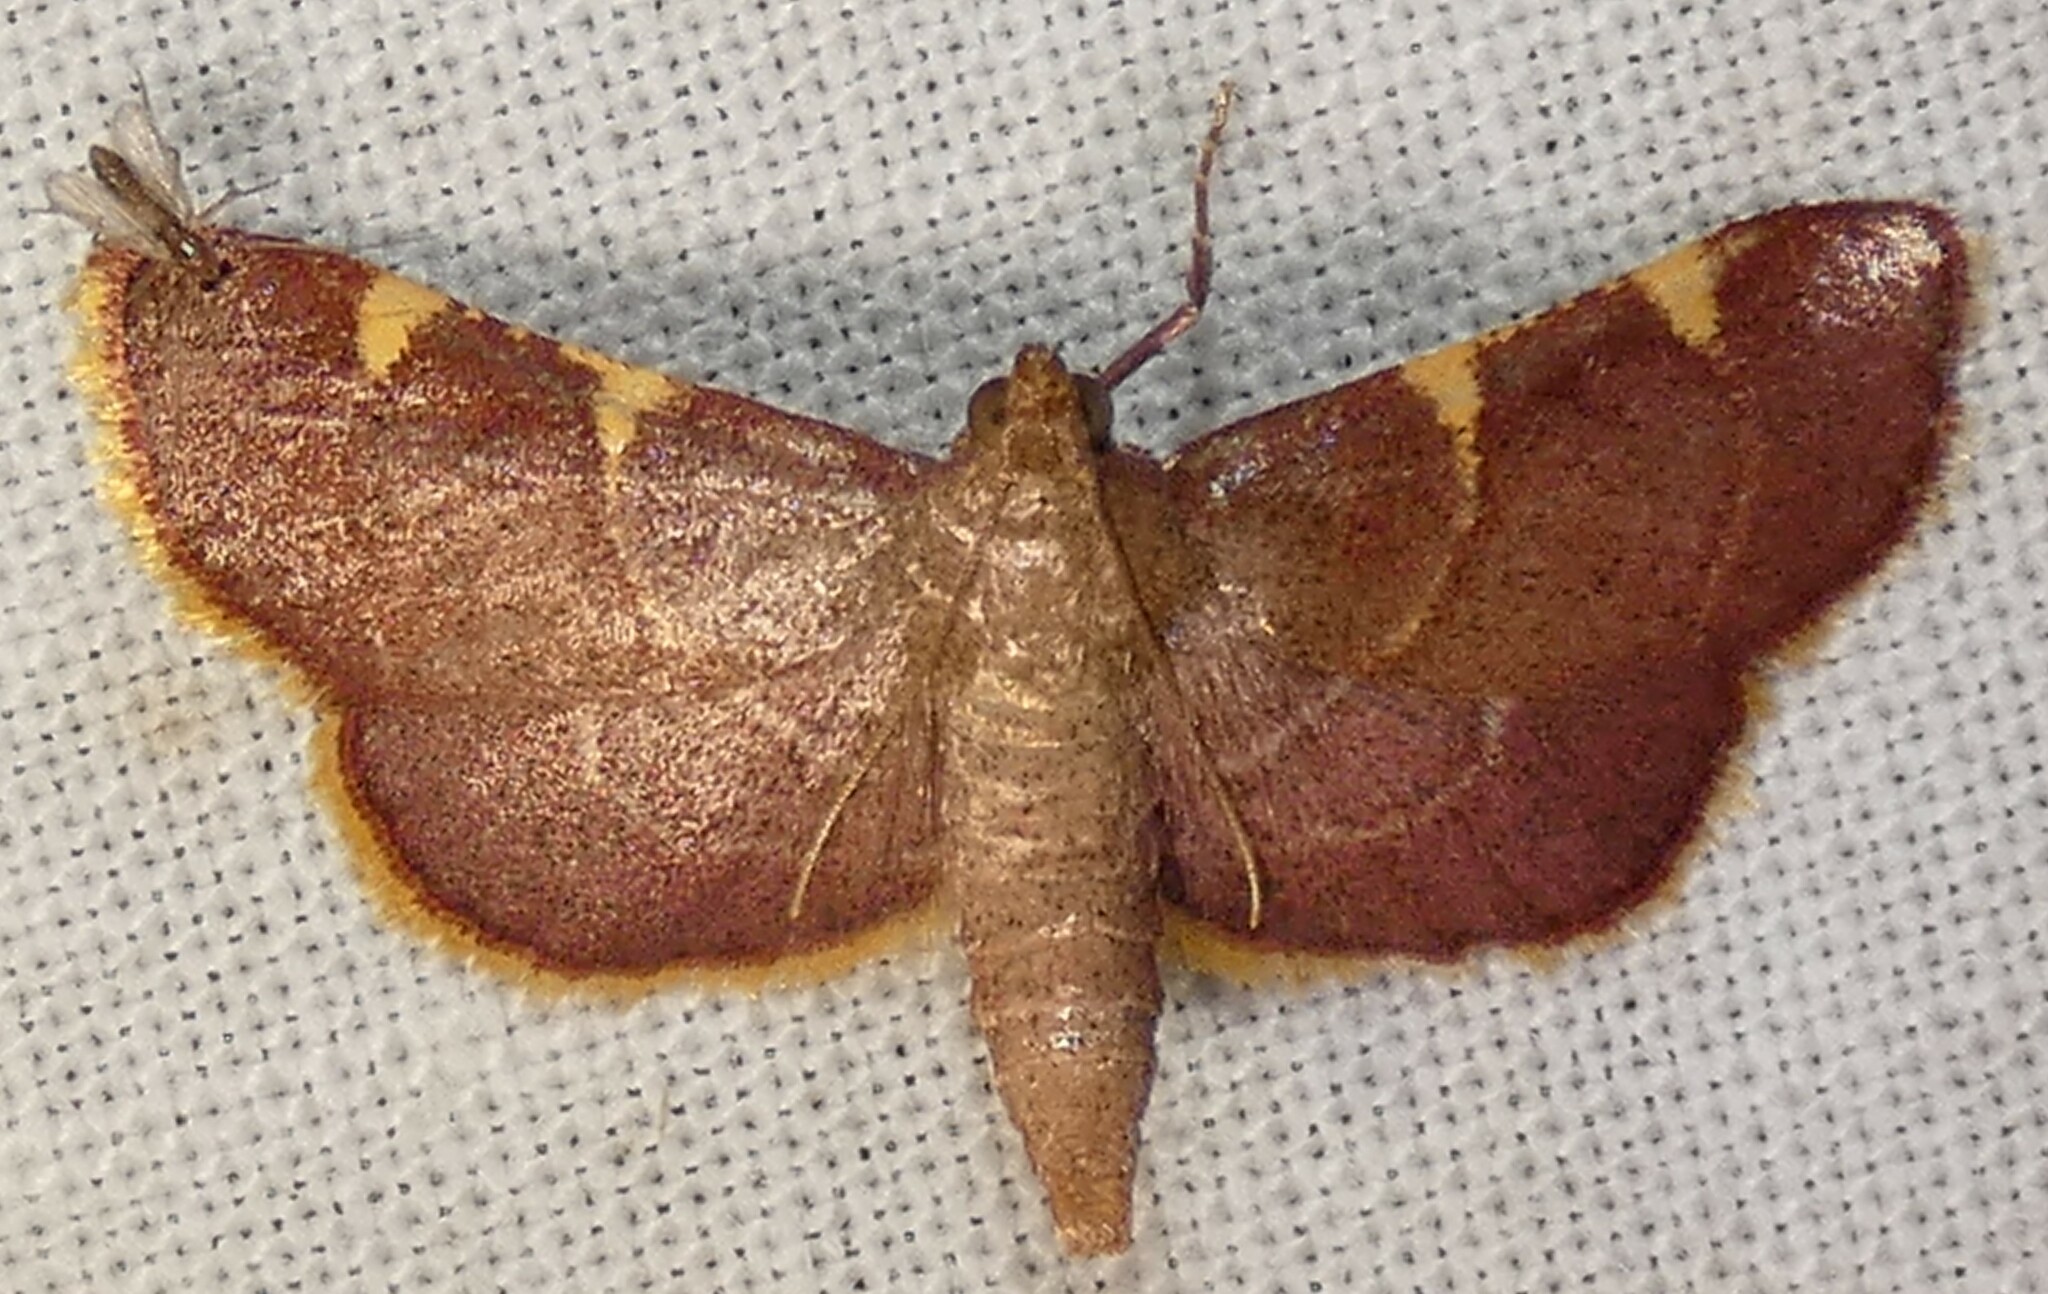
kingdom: Animalia
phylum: Arthropoda
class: Insecta
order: Lepidoptera
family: Pyralidae
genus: Hypsopygia
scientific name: Hypsopygia olinalis
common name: Yellow-fringed dolichomia moth
